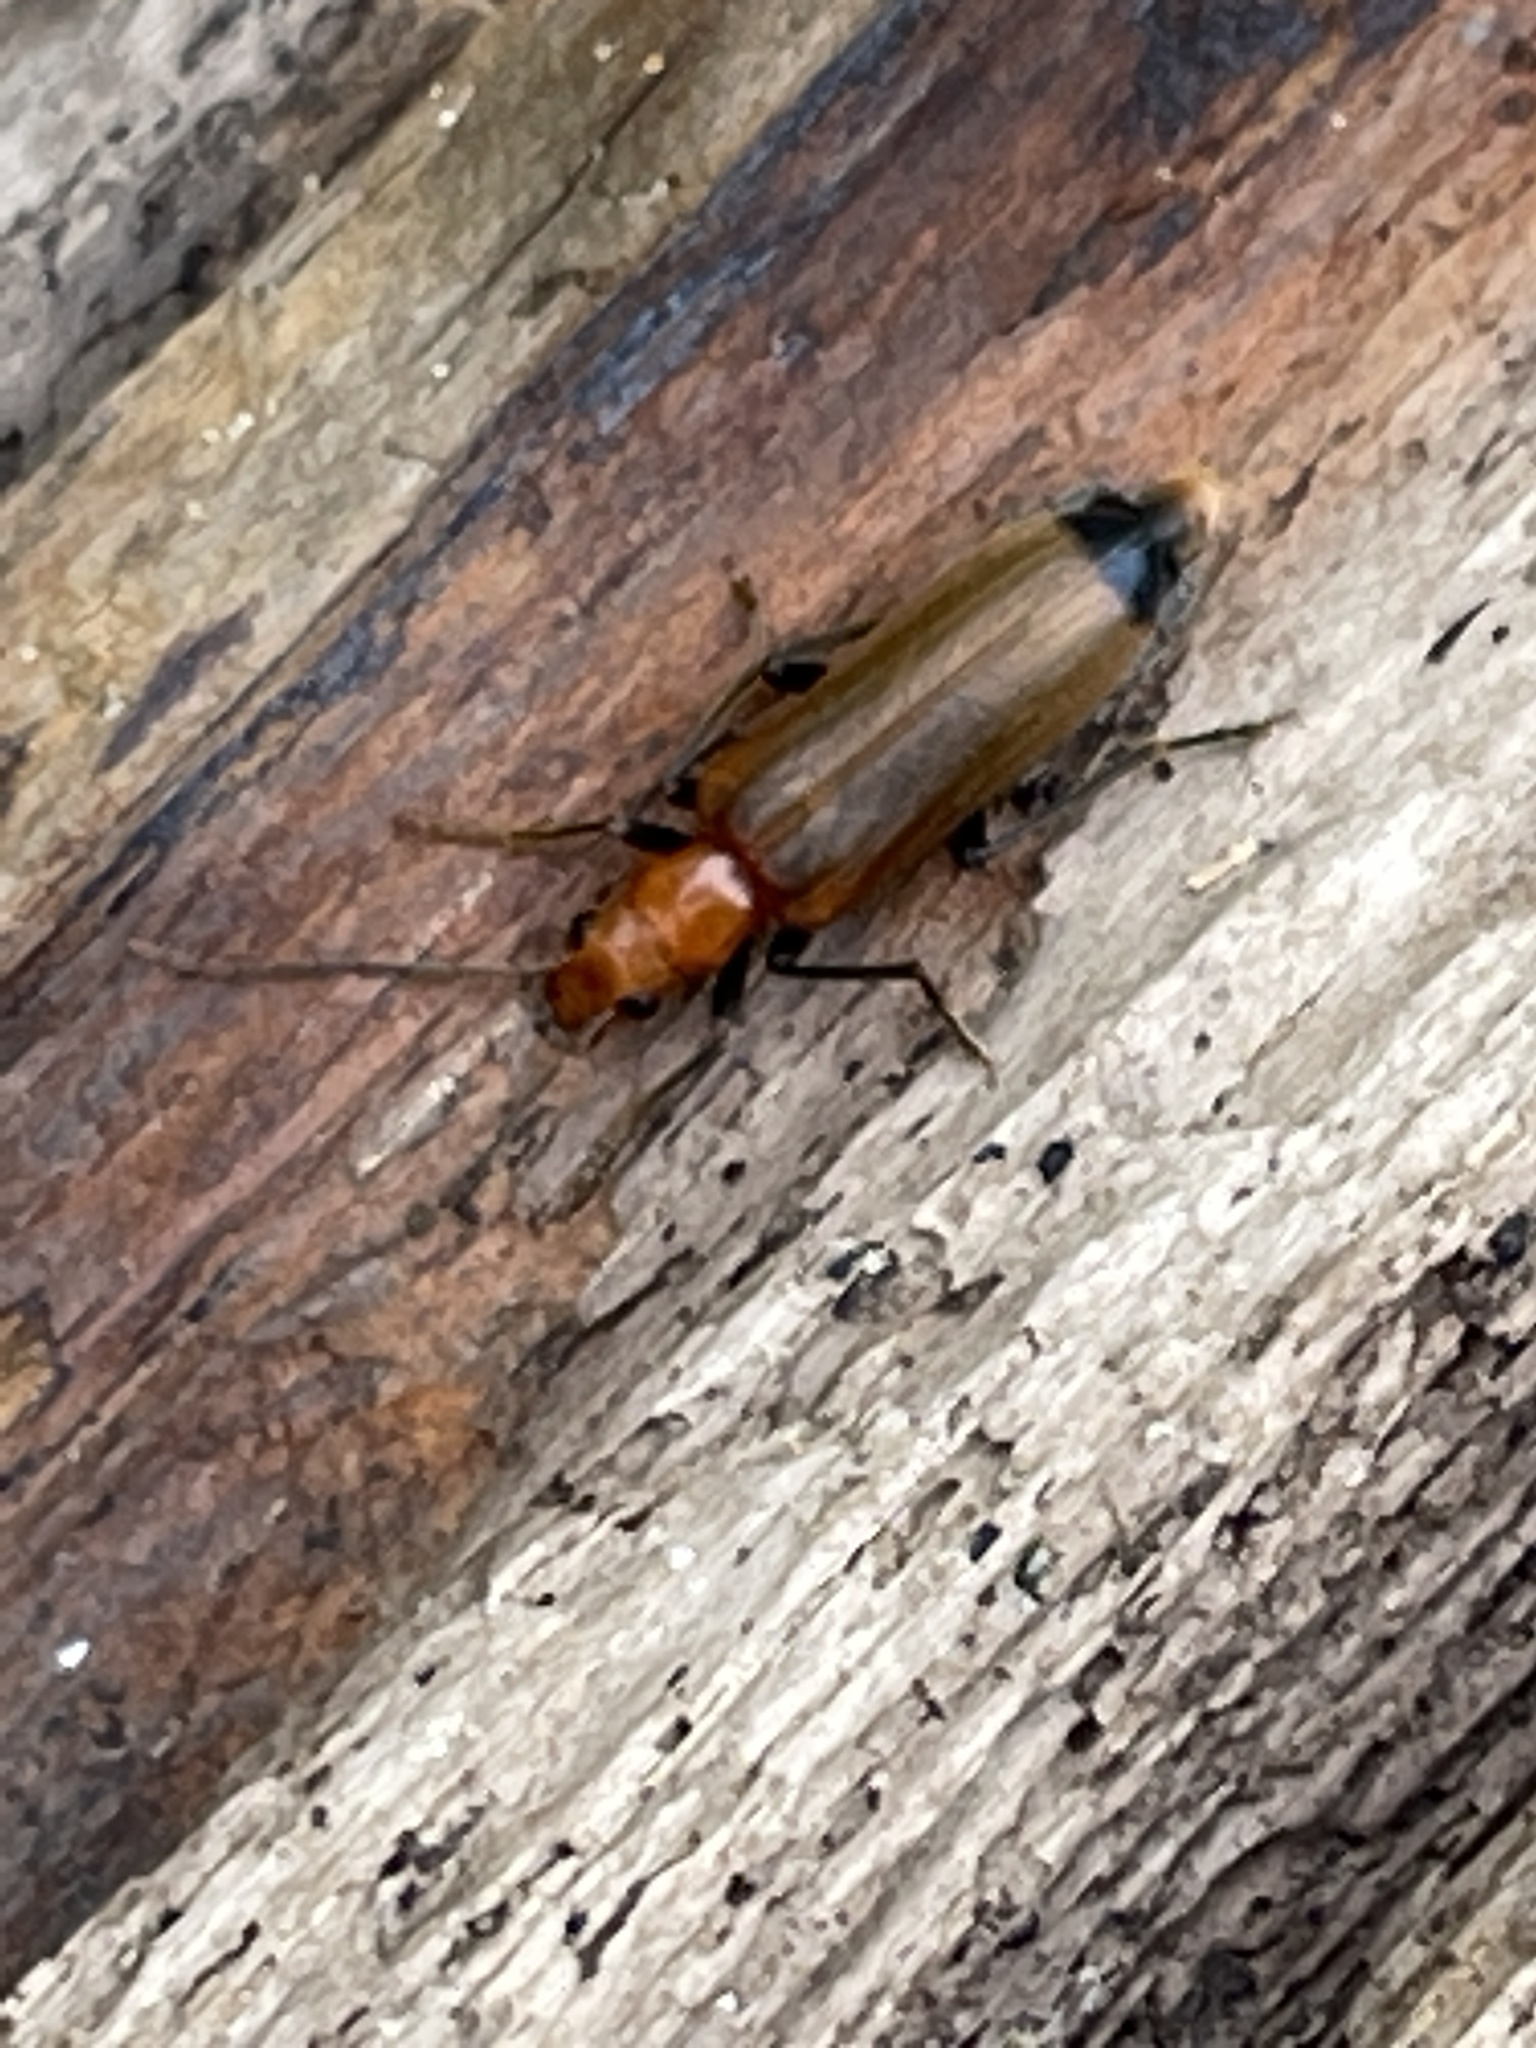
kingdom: Animalia
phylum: Arthropoda
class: Insecta
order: Coleoptera
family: Oedemeridae
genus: Nacerdes
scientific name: Nacerdes melanura
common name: Wharf borer
